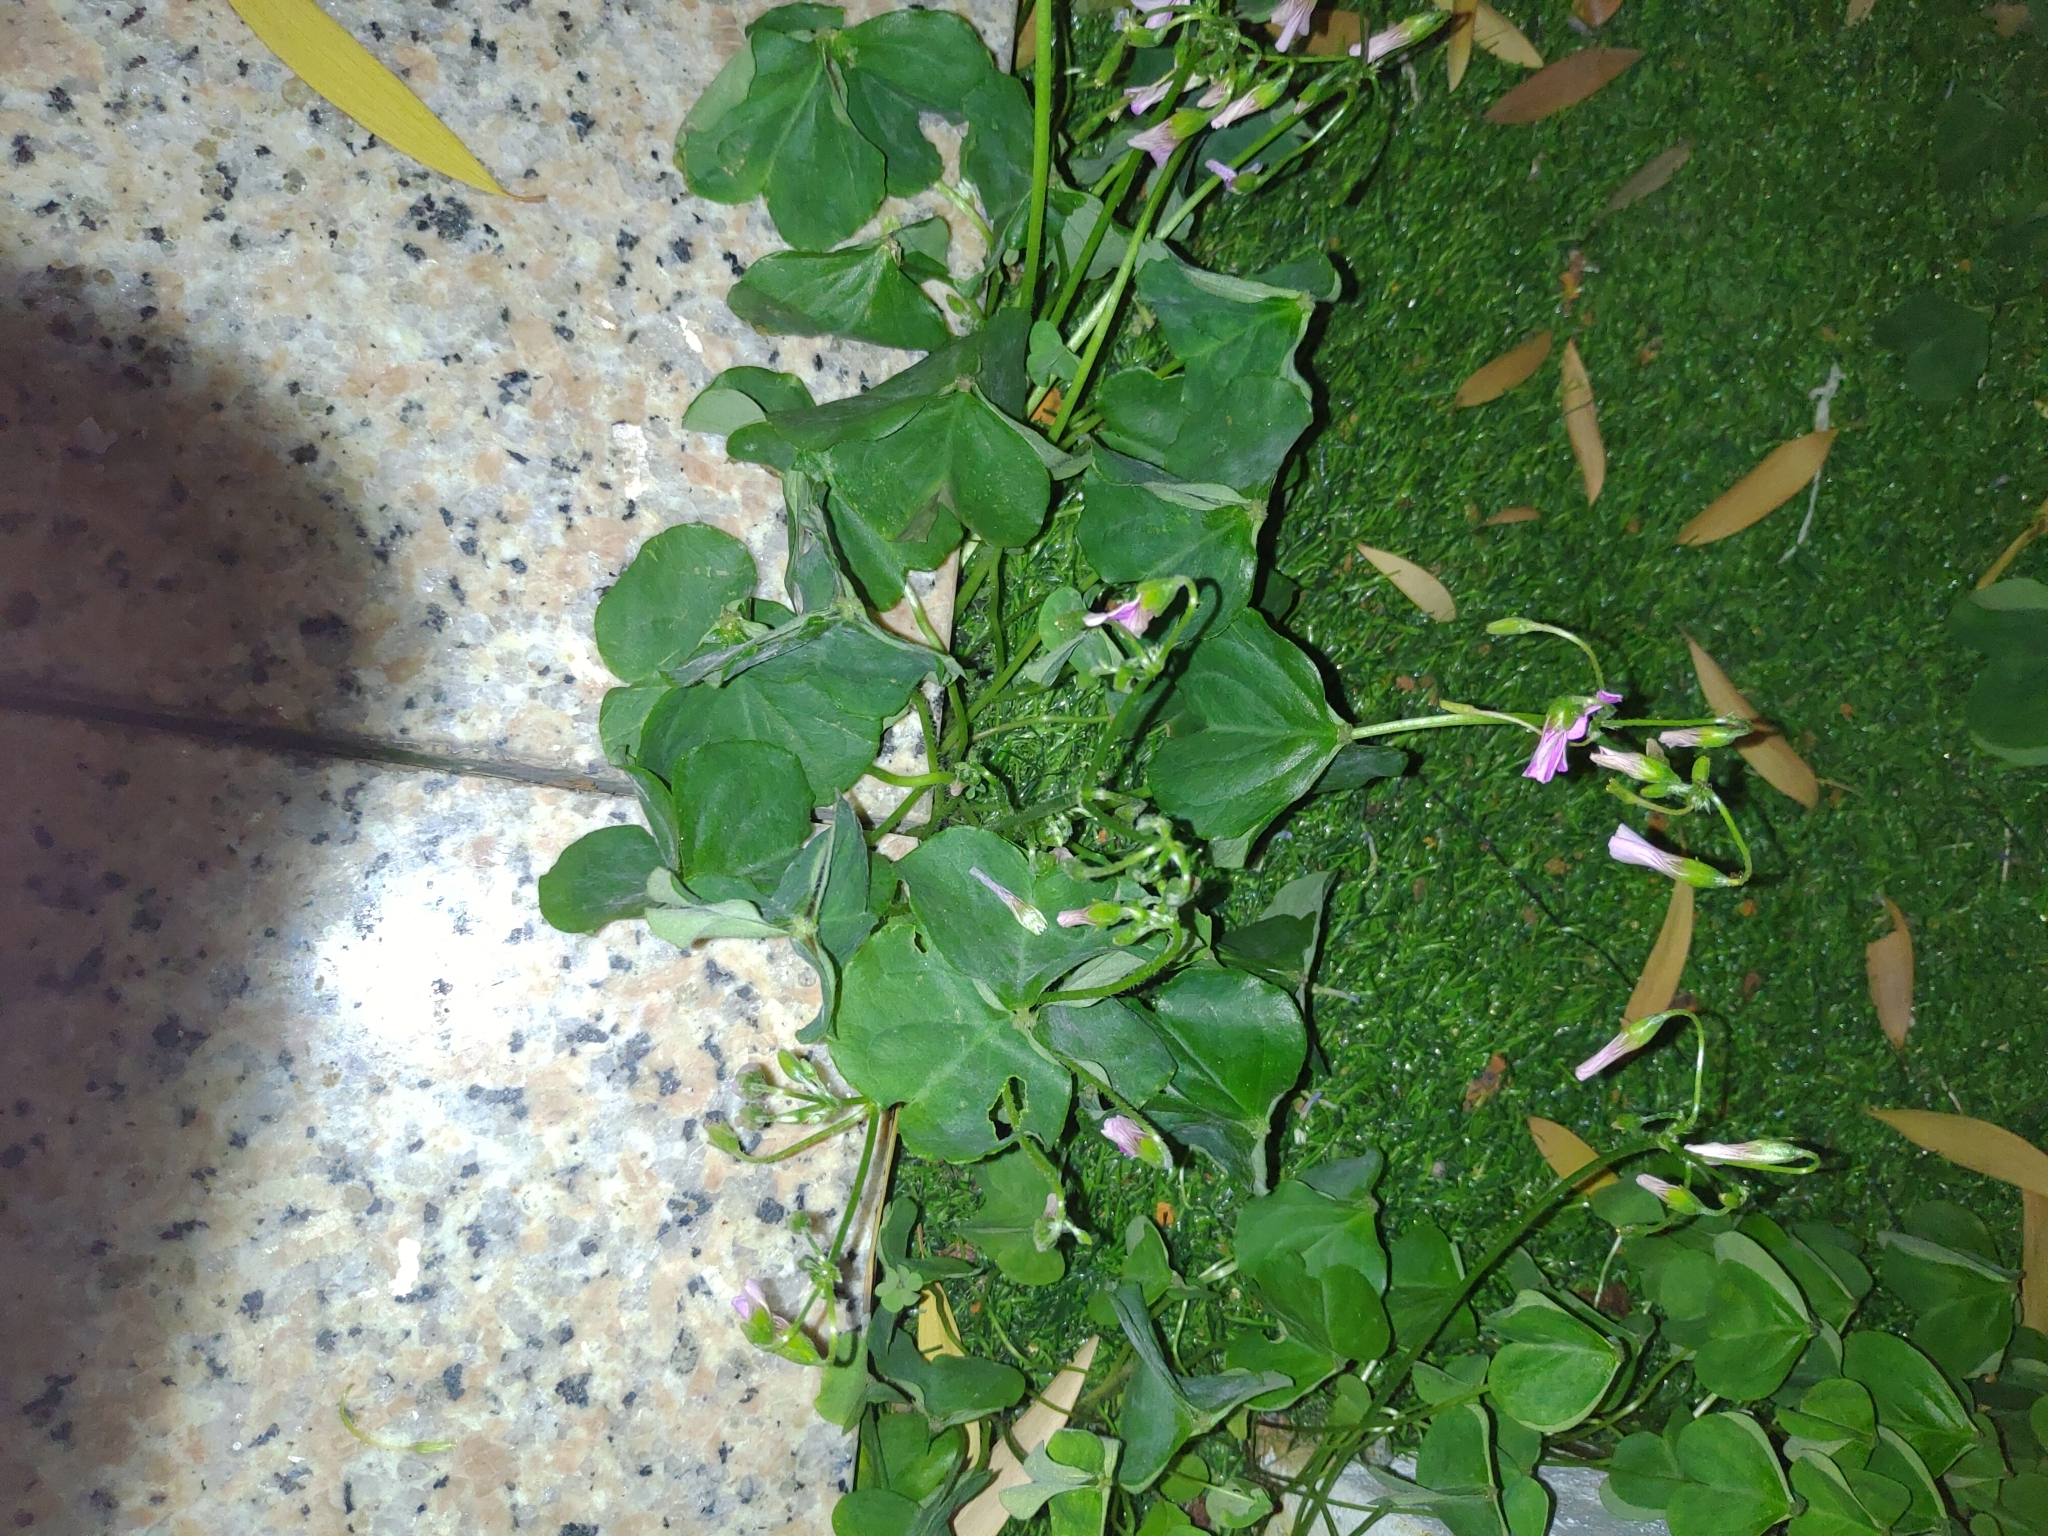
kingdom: Plantae
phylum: Tracheophyta
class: Magnoliopsida
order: Oxalidales
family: Oxalidaceae
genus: Oxalis
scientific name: Oxalis debilis
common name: Large-flowered pink-sorrel
